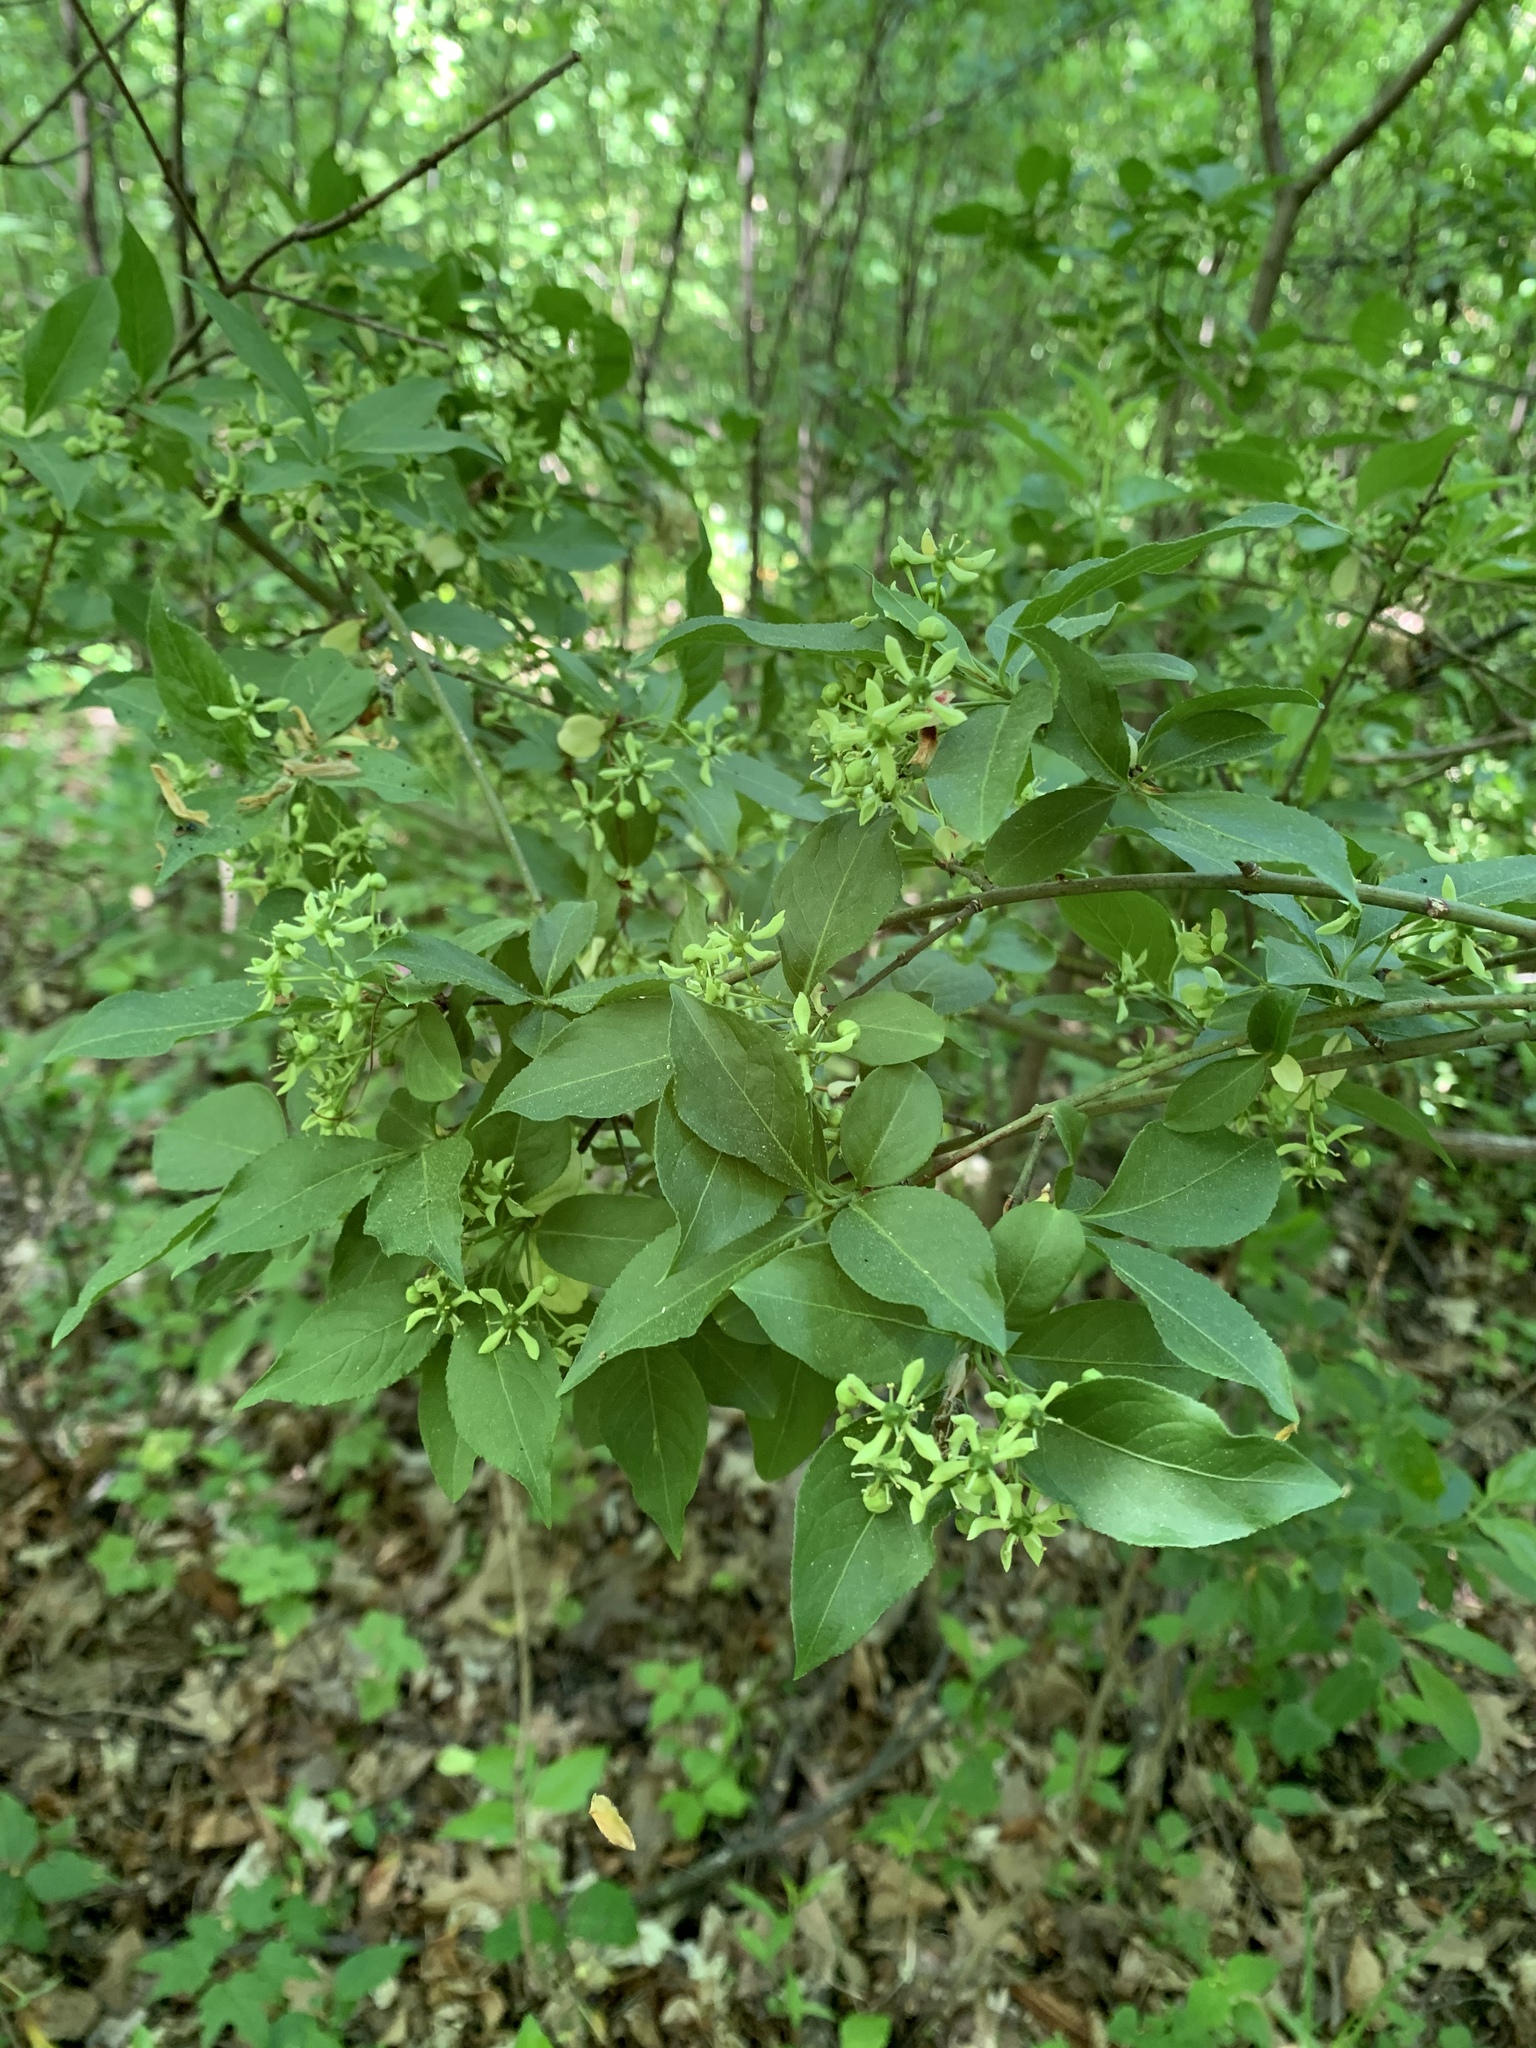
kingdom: Plantae
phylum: Tracheophyta
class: Magnoliopsida
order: Celastrales
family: Celastraceae
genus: Euonymus
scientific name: Euonymus europaeus
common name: Spindle
